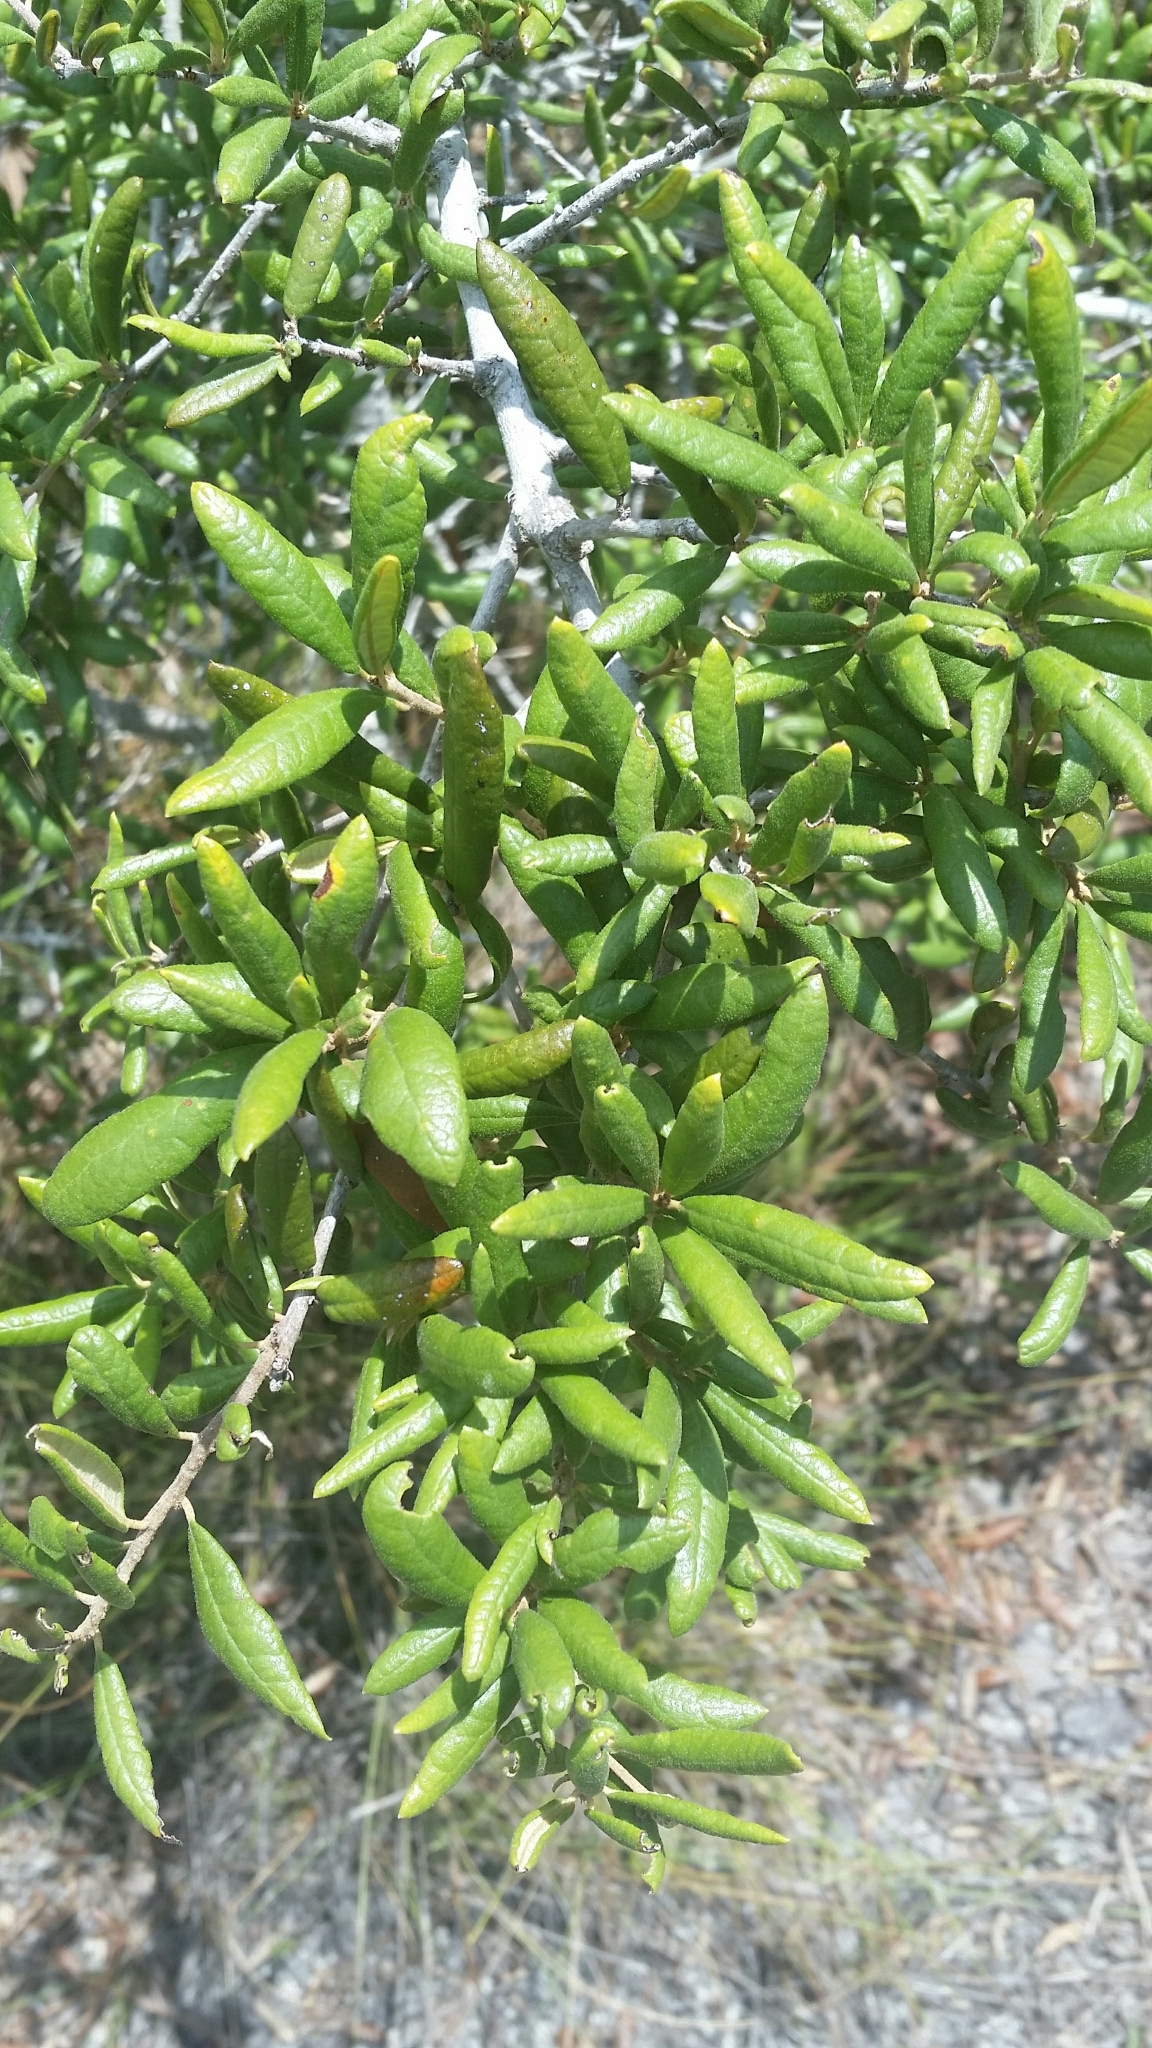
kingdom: Plantae
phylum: Tracheophyta
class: Magnoliopsida
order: Fagales
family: Fagaceae
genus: Quercus
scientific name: Quercus geminata
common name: Sand live oak
